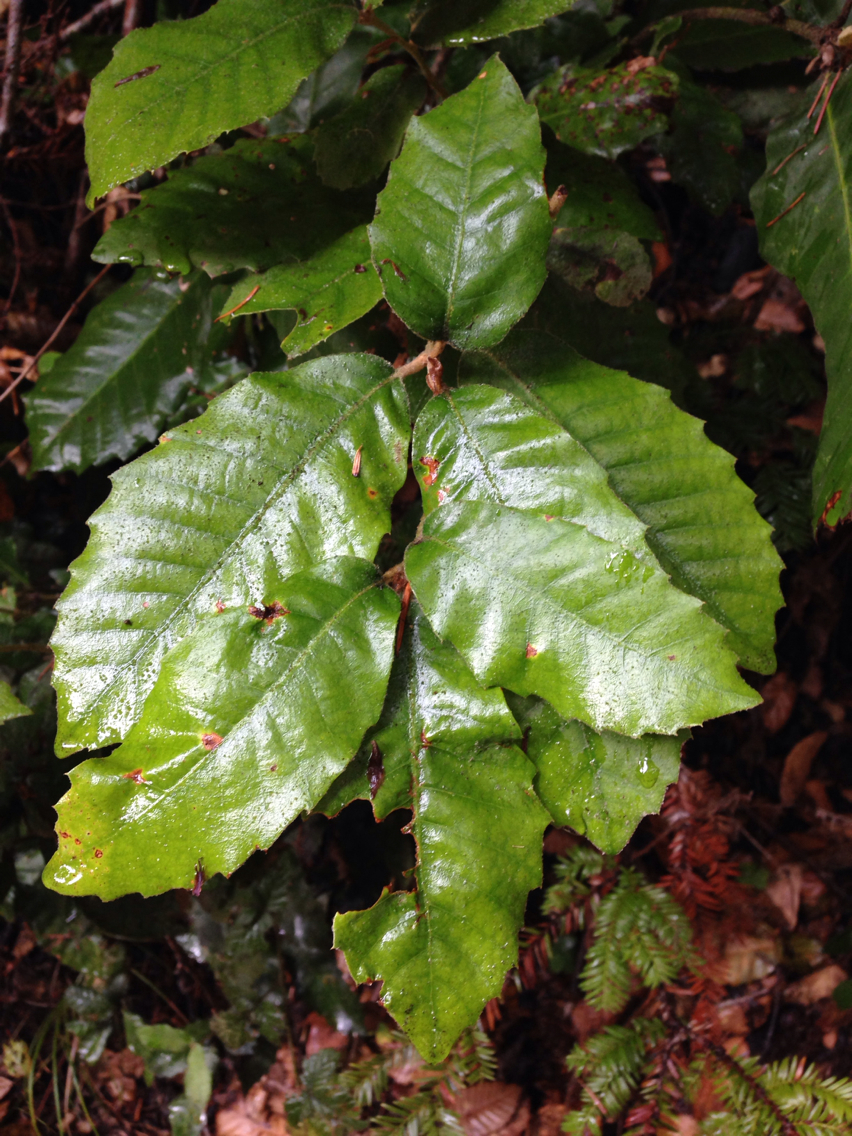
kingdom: Plantae
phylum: Tracheophyta
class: Magnoliopsida
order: Fagales
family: Fagaceae
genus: Notholithocarpus
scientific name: Notholithocarpus densiflorus
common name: Tan bark oak
